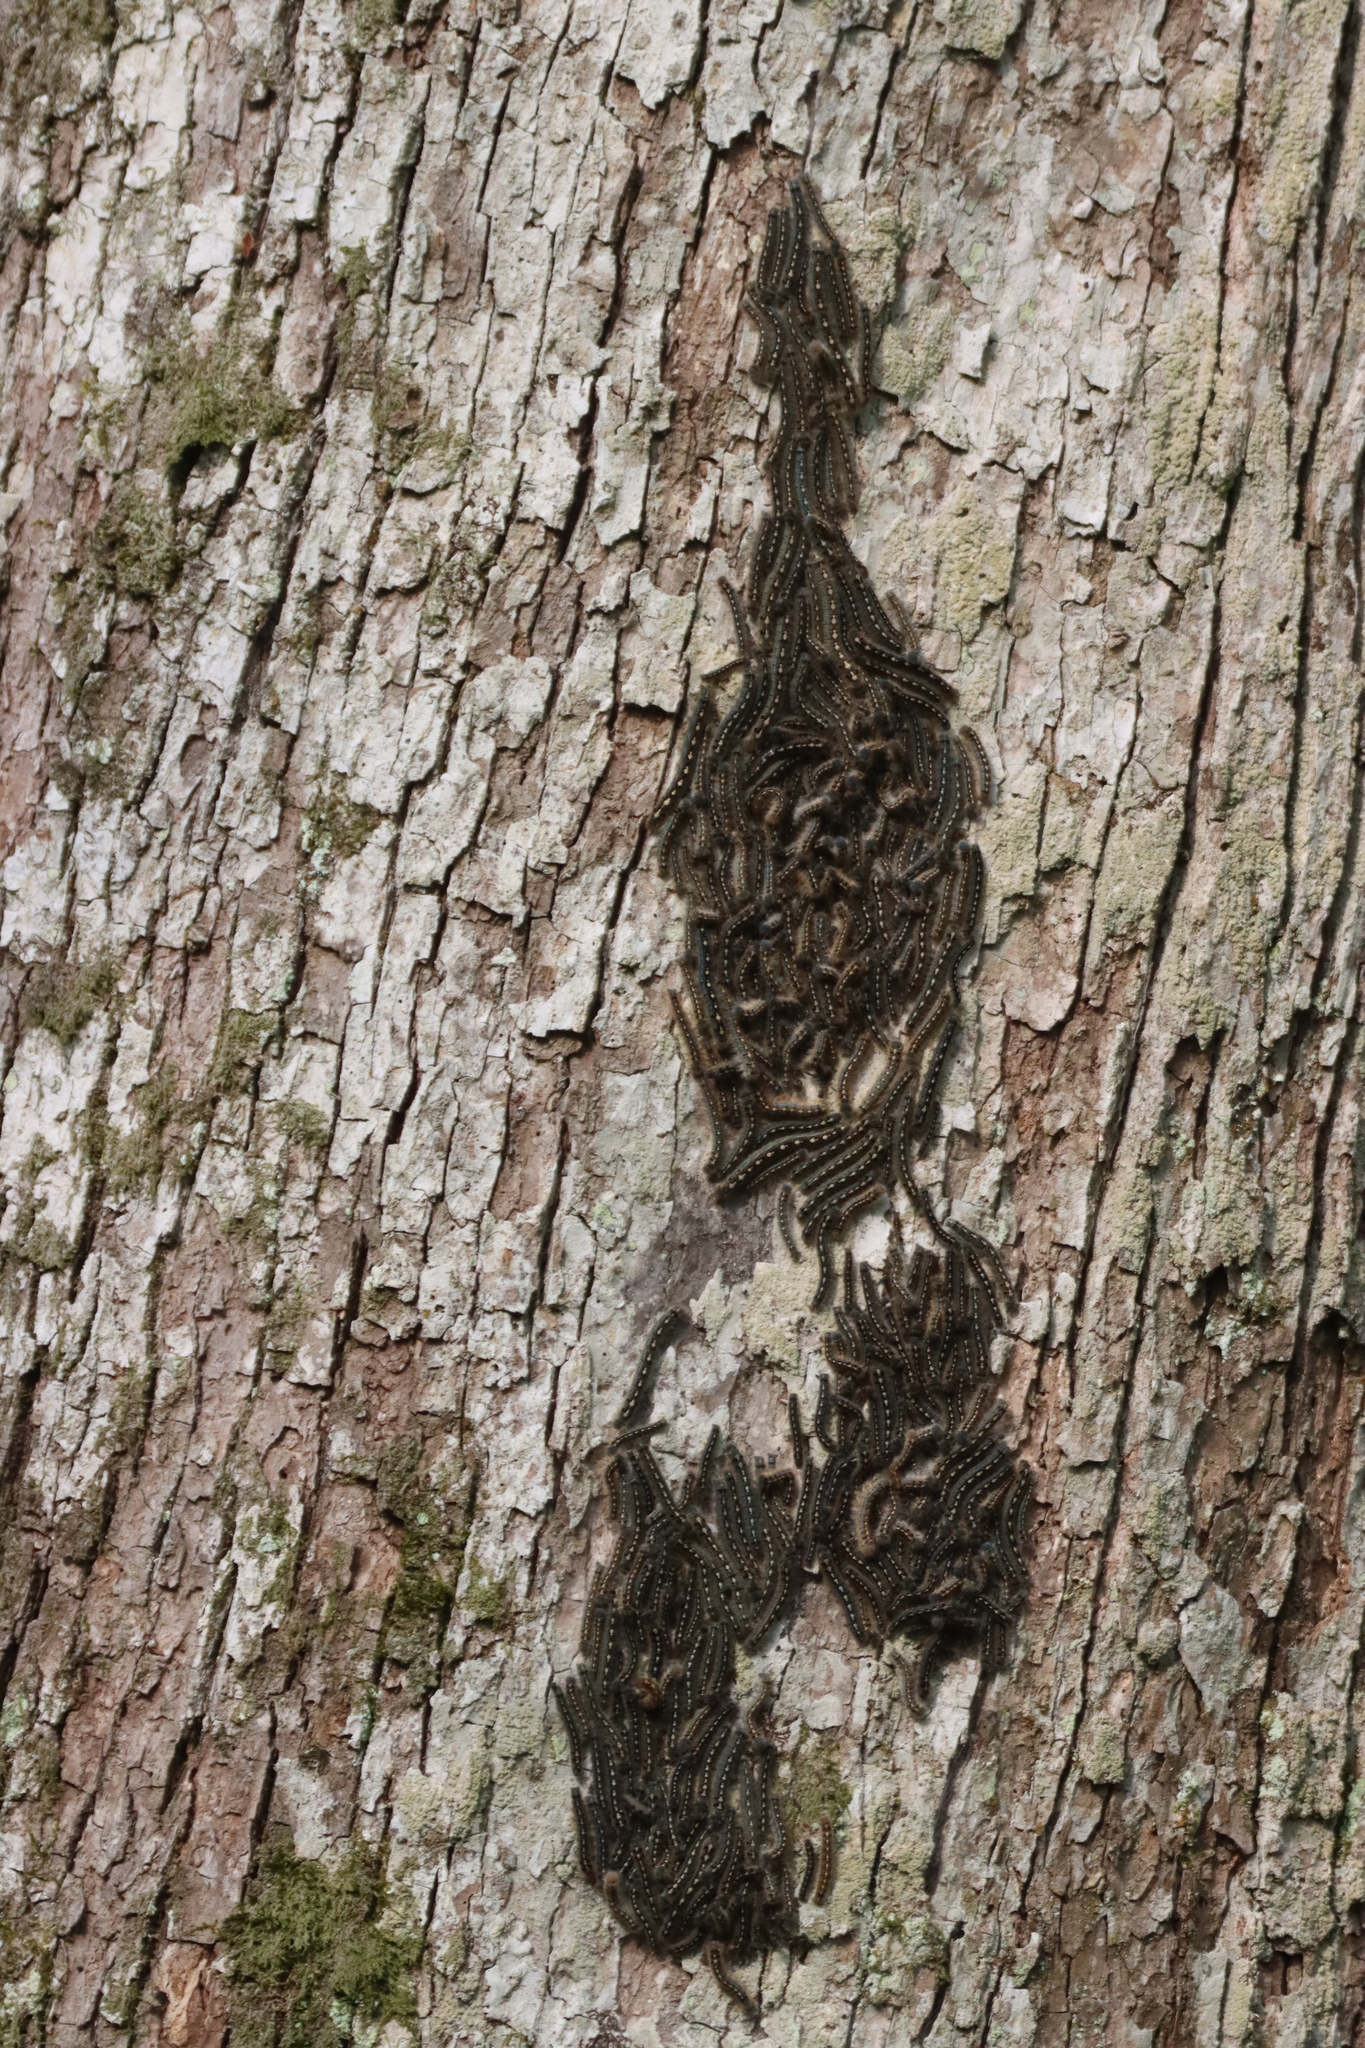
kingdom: Animalia
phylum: Arthropoda
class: Insecta
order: Lepidoptera
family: Lasiocampidae
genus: Malacosoma
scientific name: Malacosoma disstria
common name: Forest tent caterpillar
